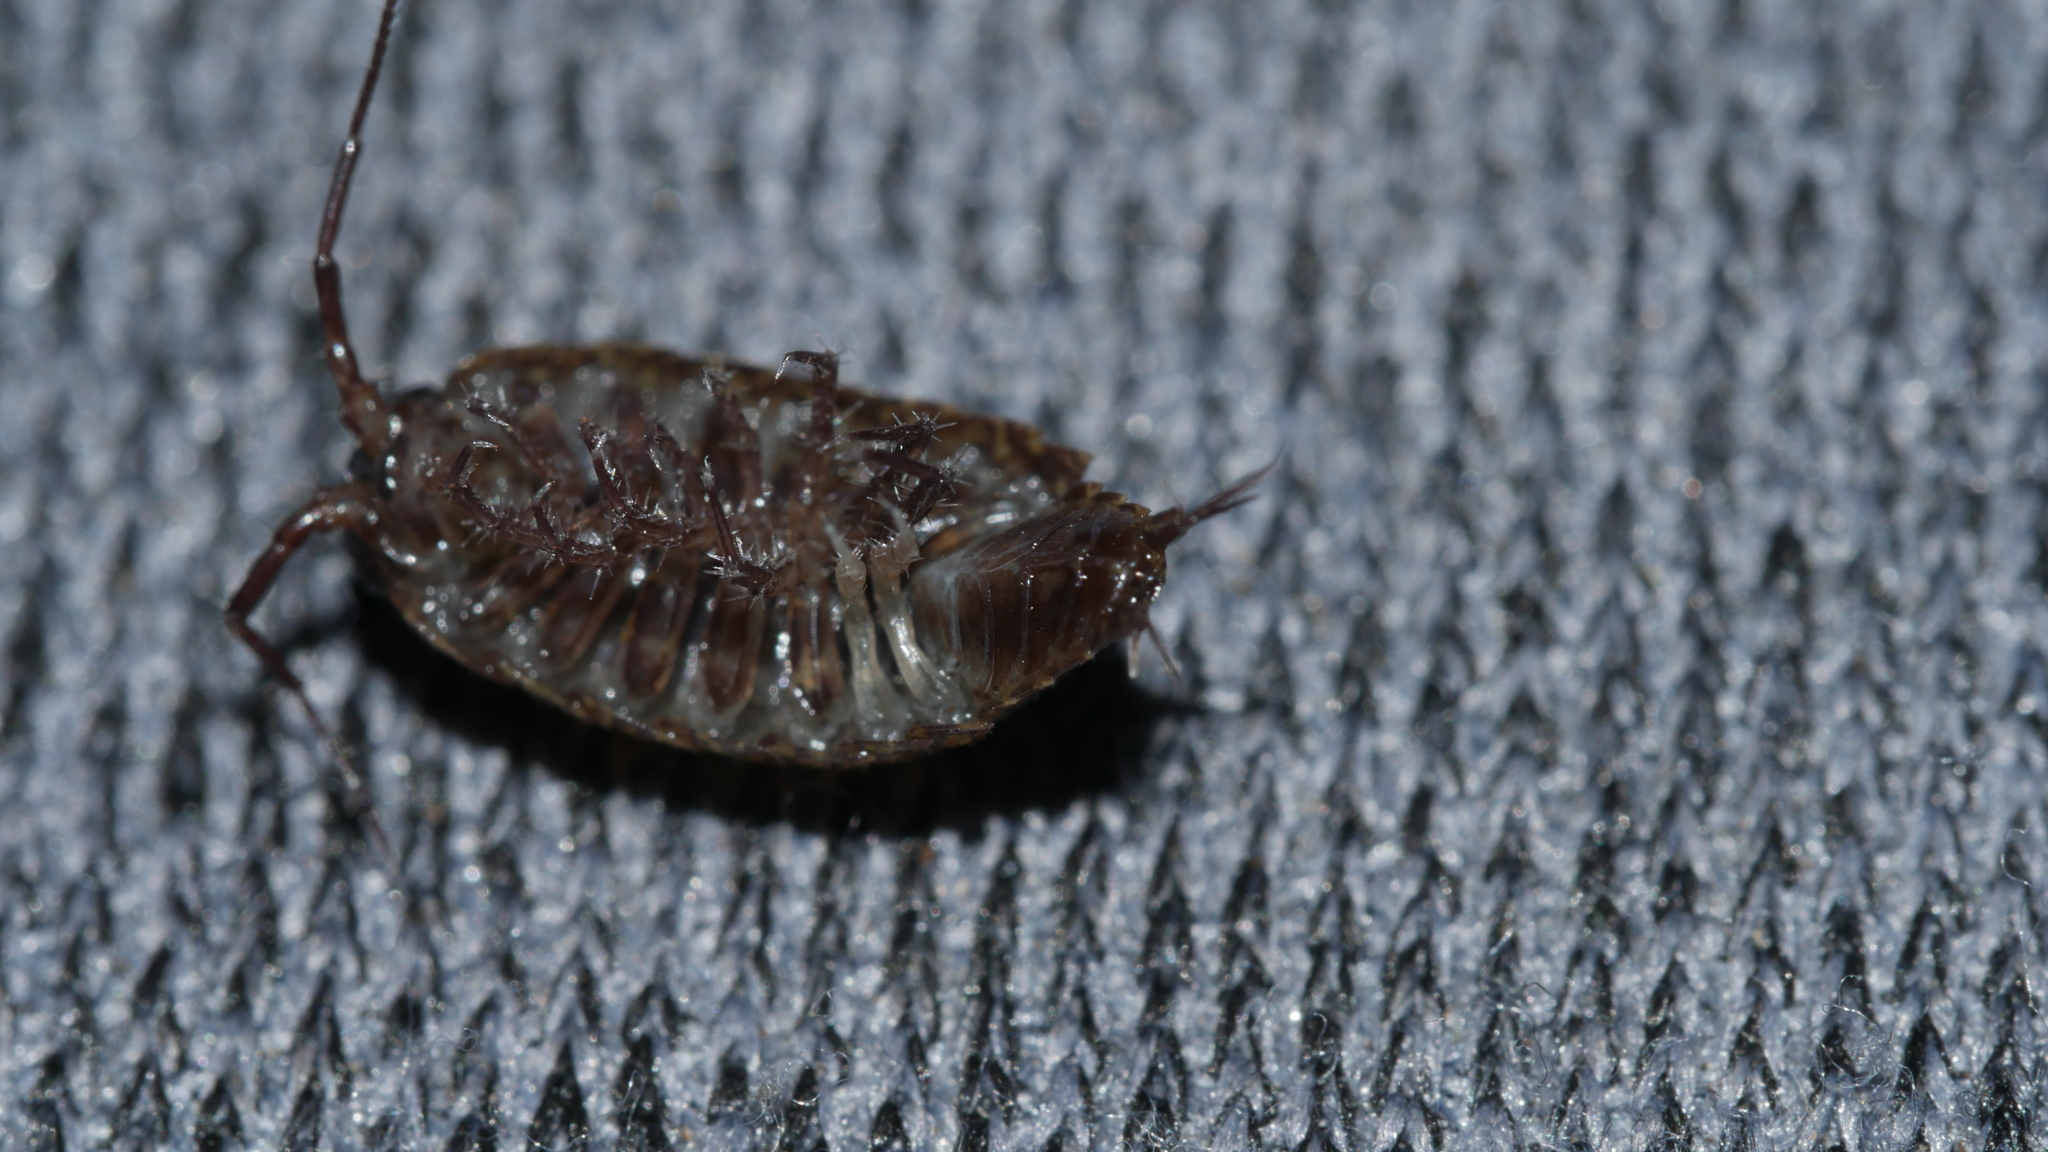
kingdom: Animalia
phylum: Arthropoda
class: Malacostraca
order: Isopoda
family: Ligiidae
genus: Ligidium
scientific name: Ligidium elrodii
